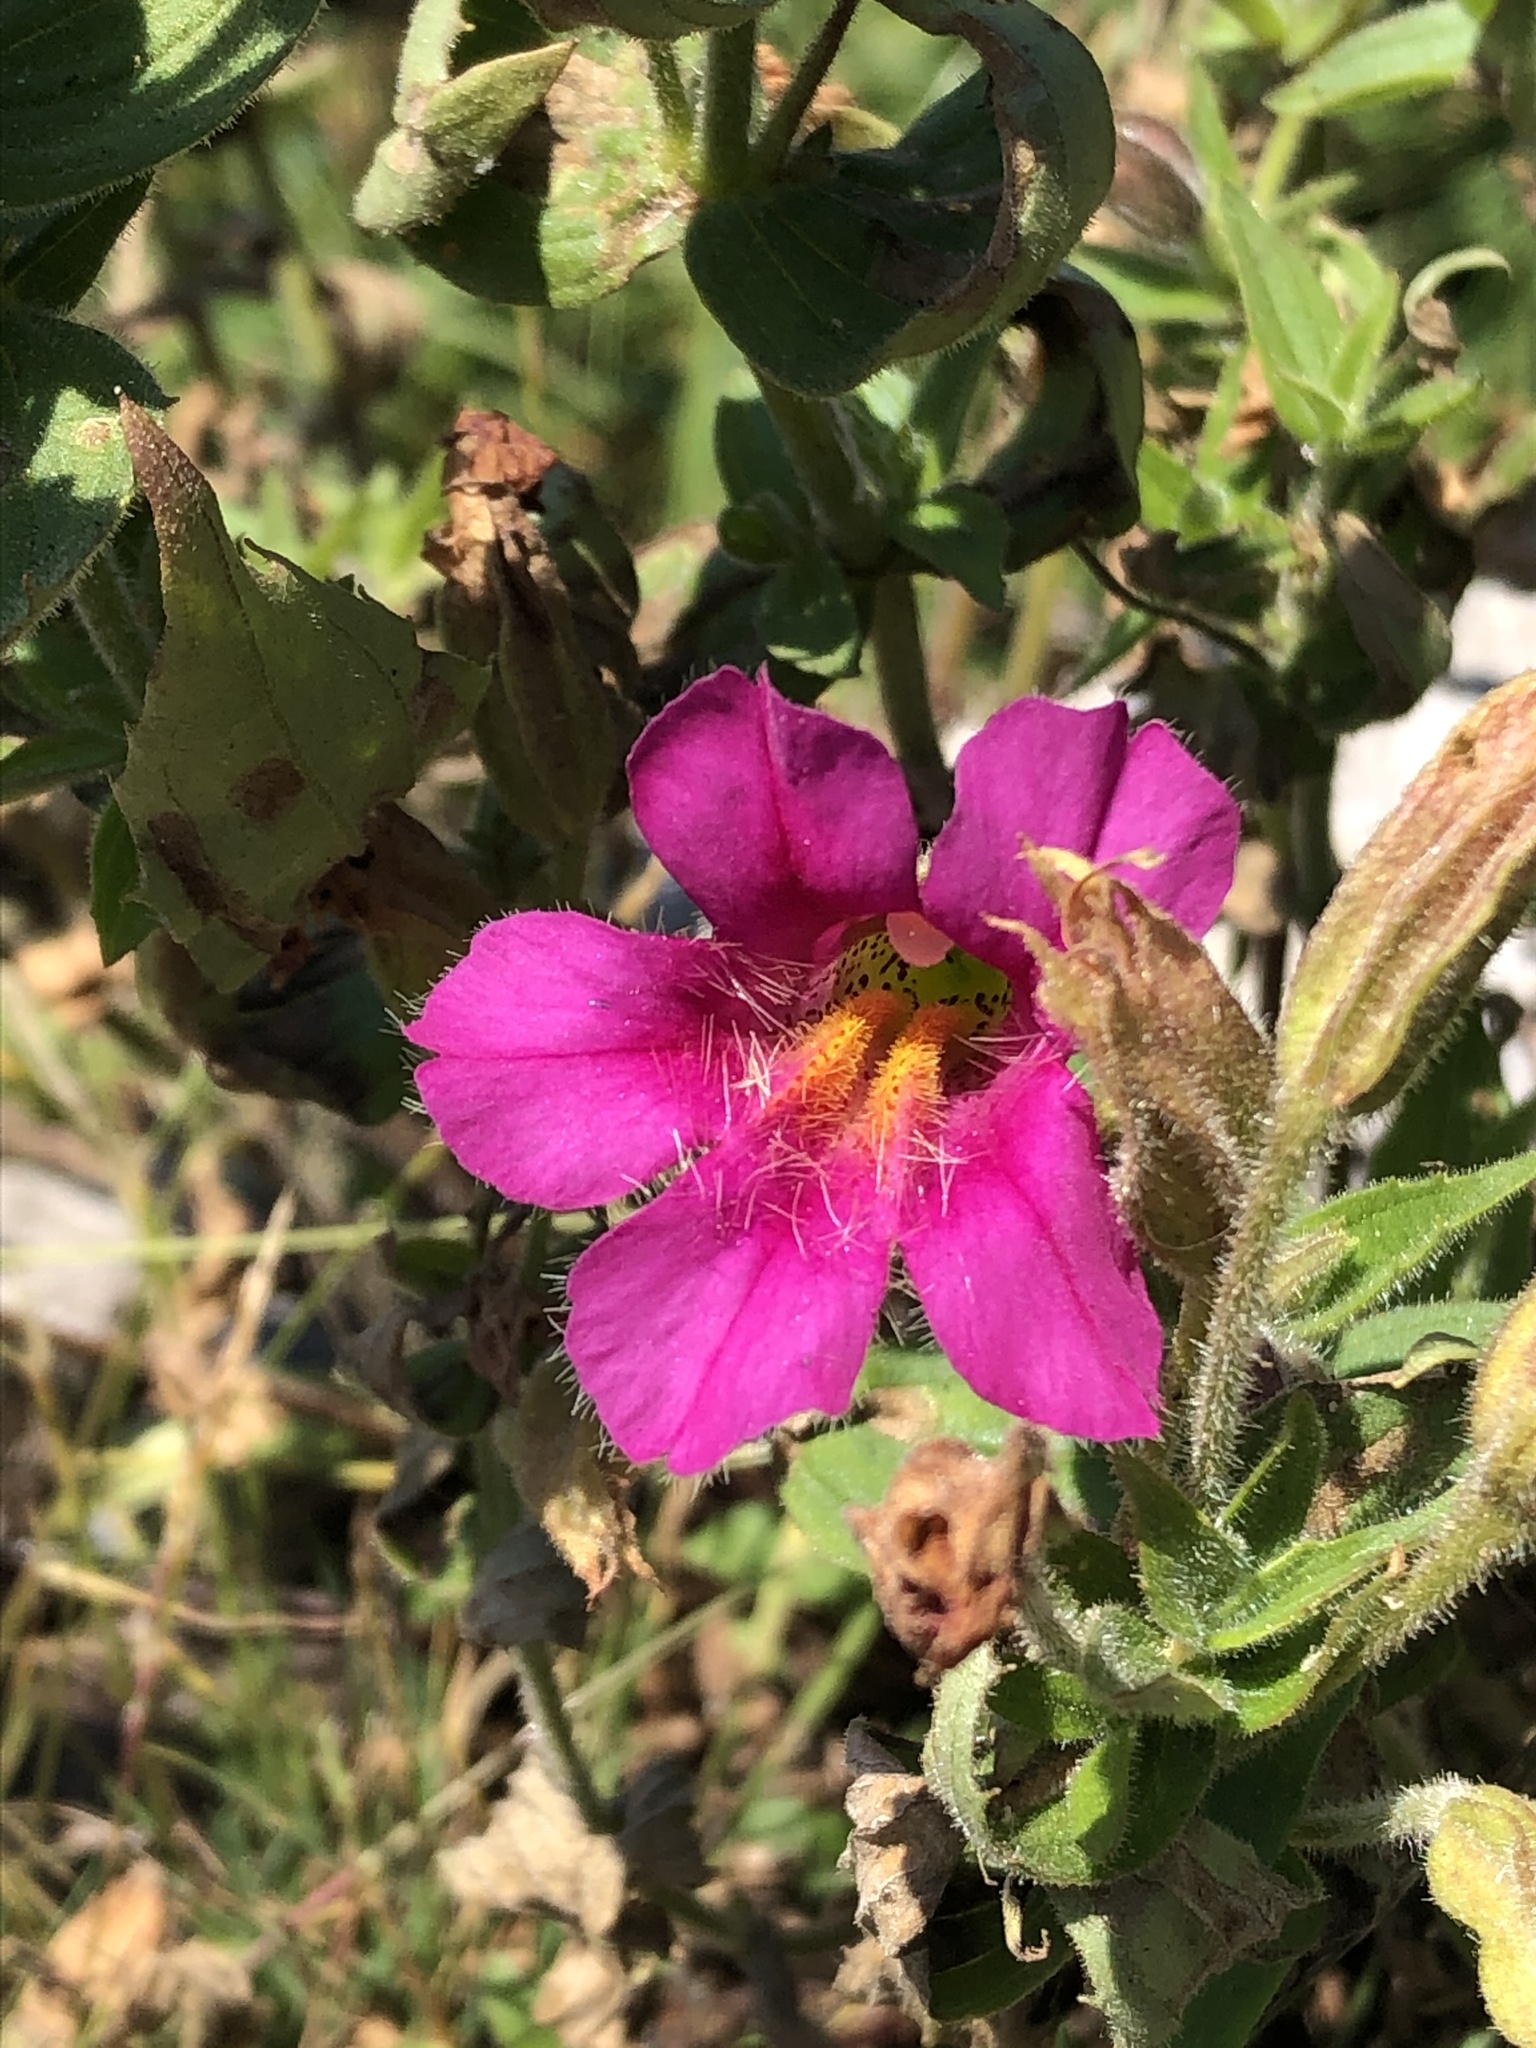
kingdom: Plantae
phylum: Tracheophyta
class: Magnoliopsida
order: Lamiales
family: Phrymaceae
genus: Erythranthe
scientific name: Erythranthe lewisii
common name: Lewis's monkey-flower
